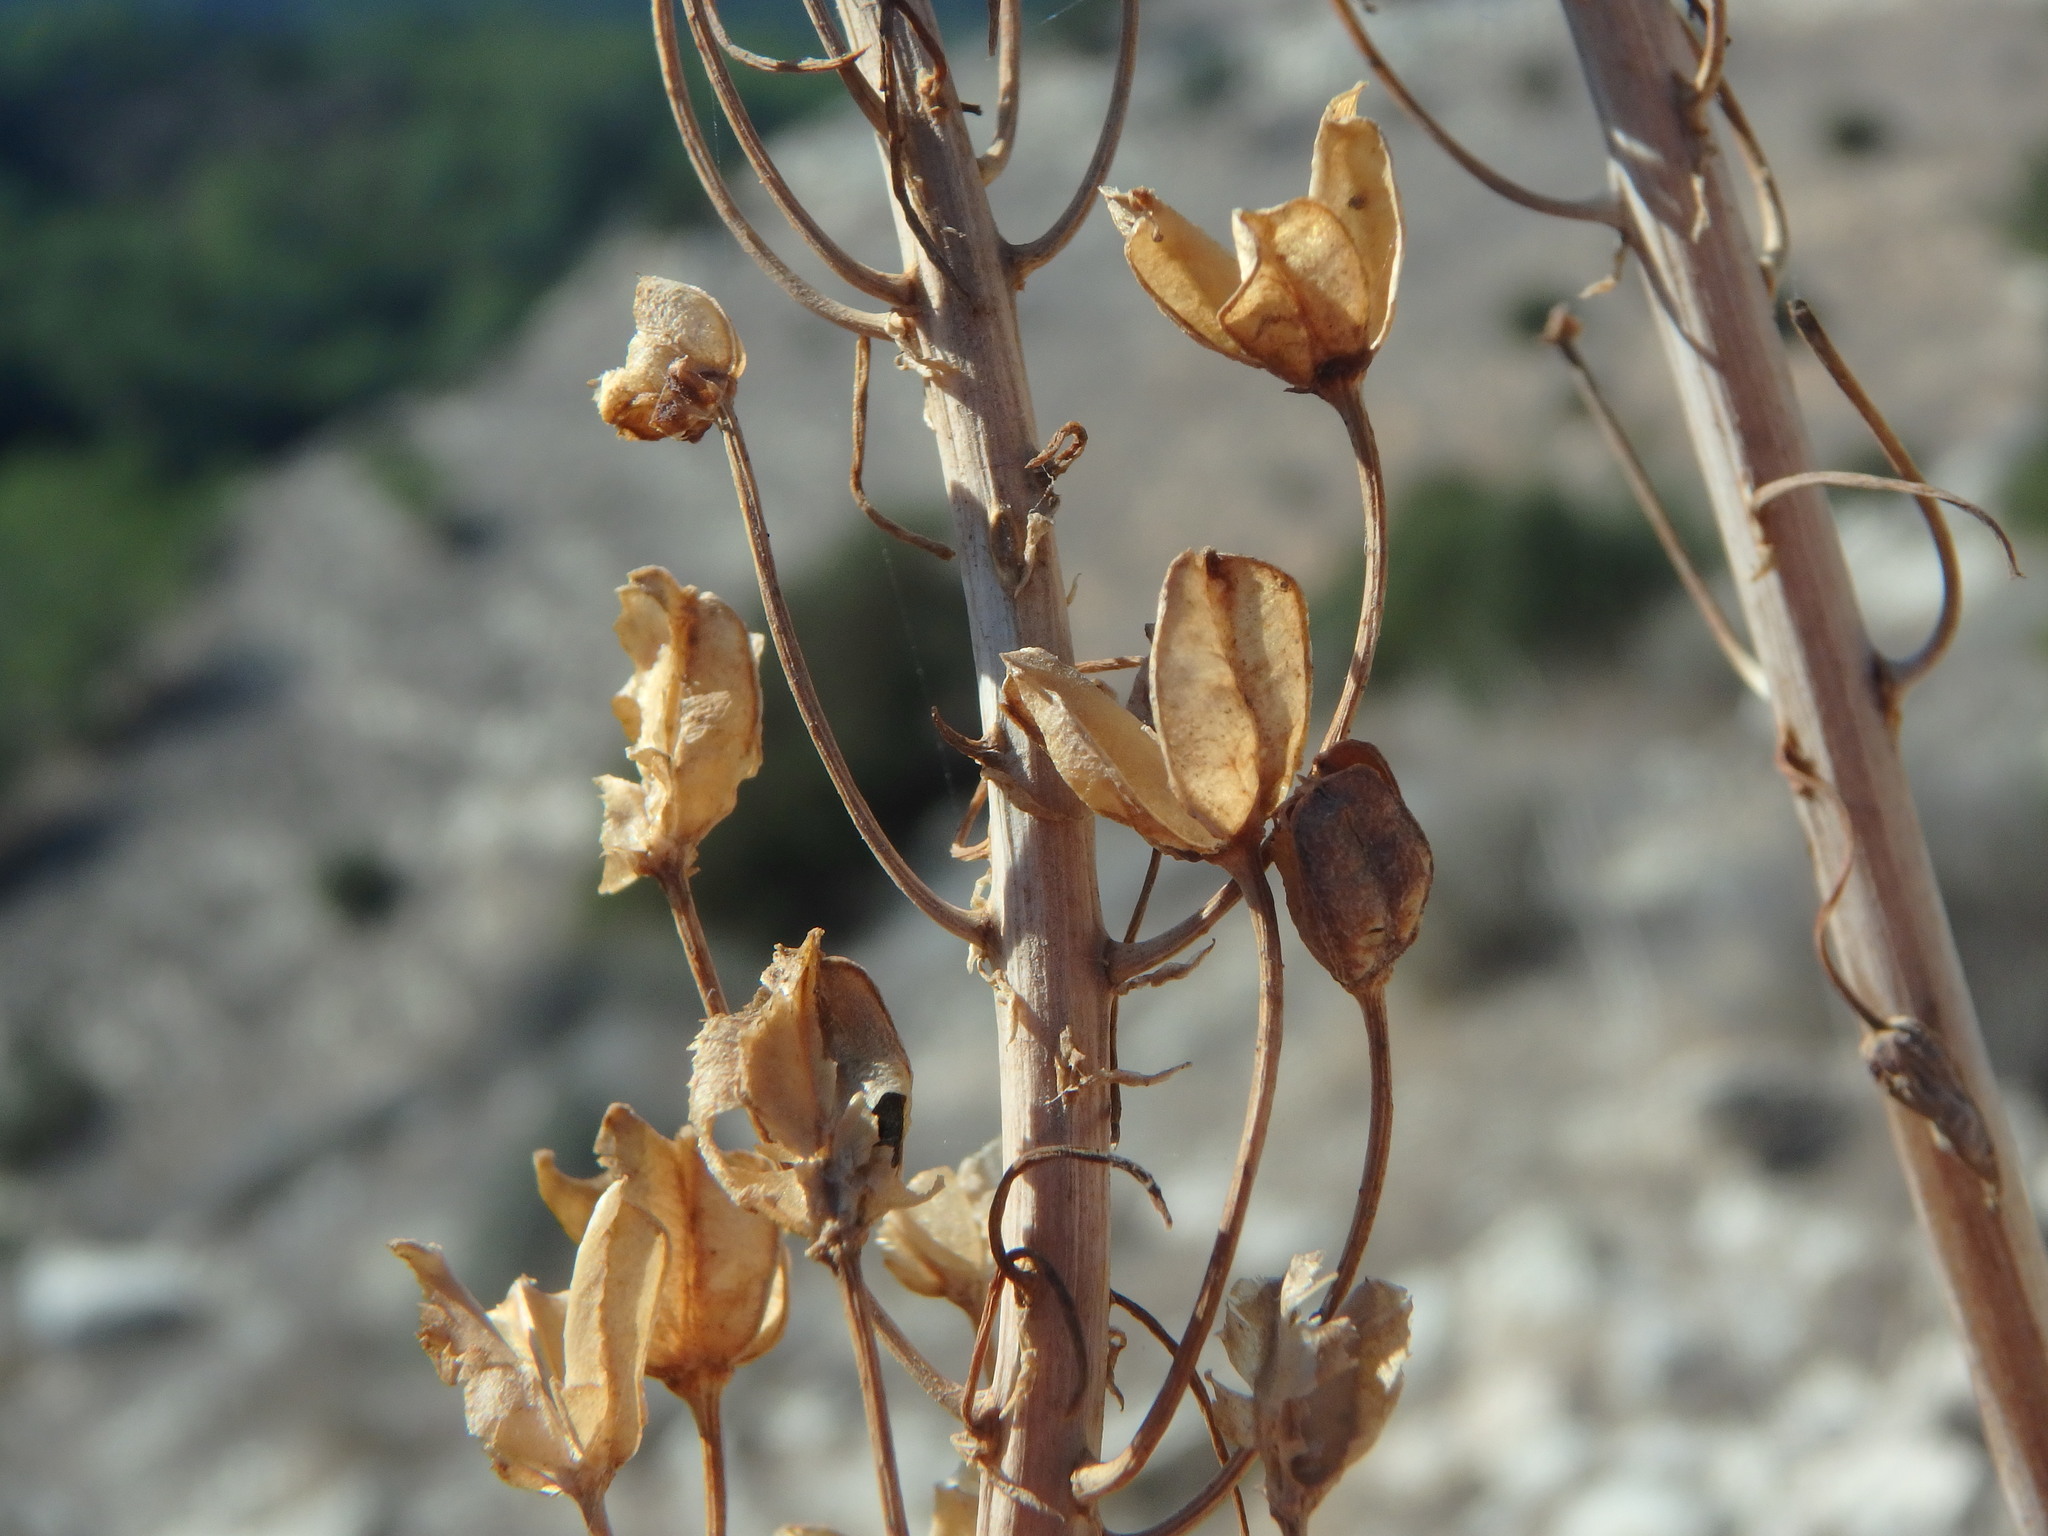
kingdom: Plantae
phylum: Tracheophyta
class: Liliopsida
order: Asparagales
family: Asparagaceae
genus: Drimia
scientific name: Drimia aphylla
